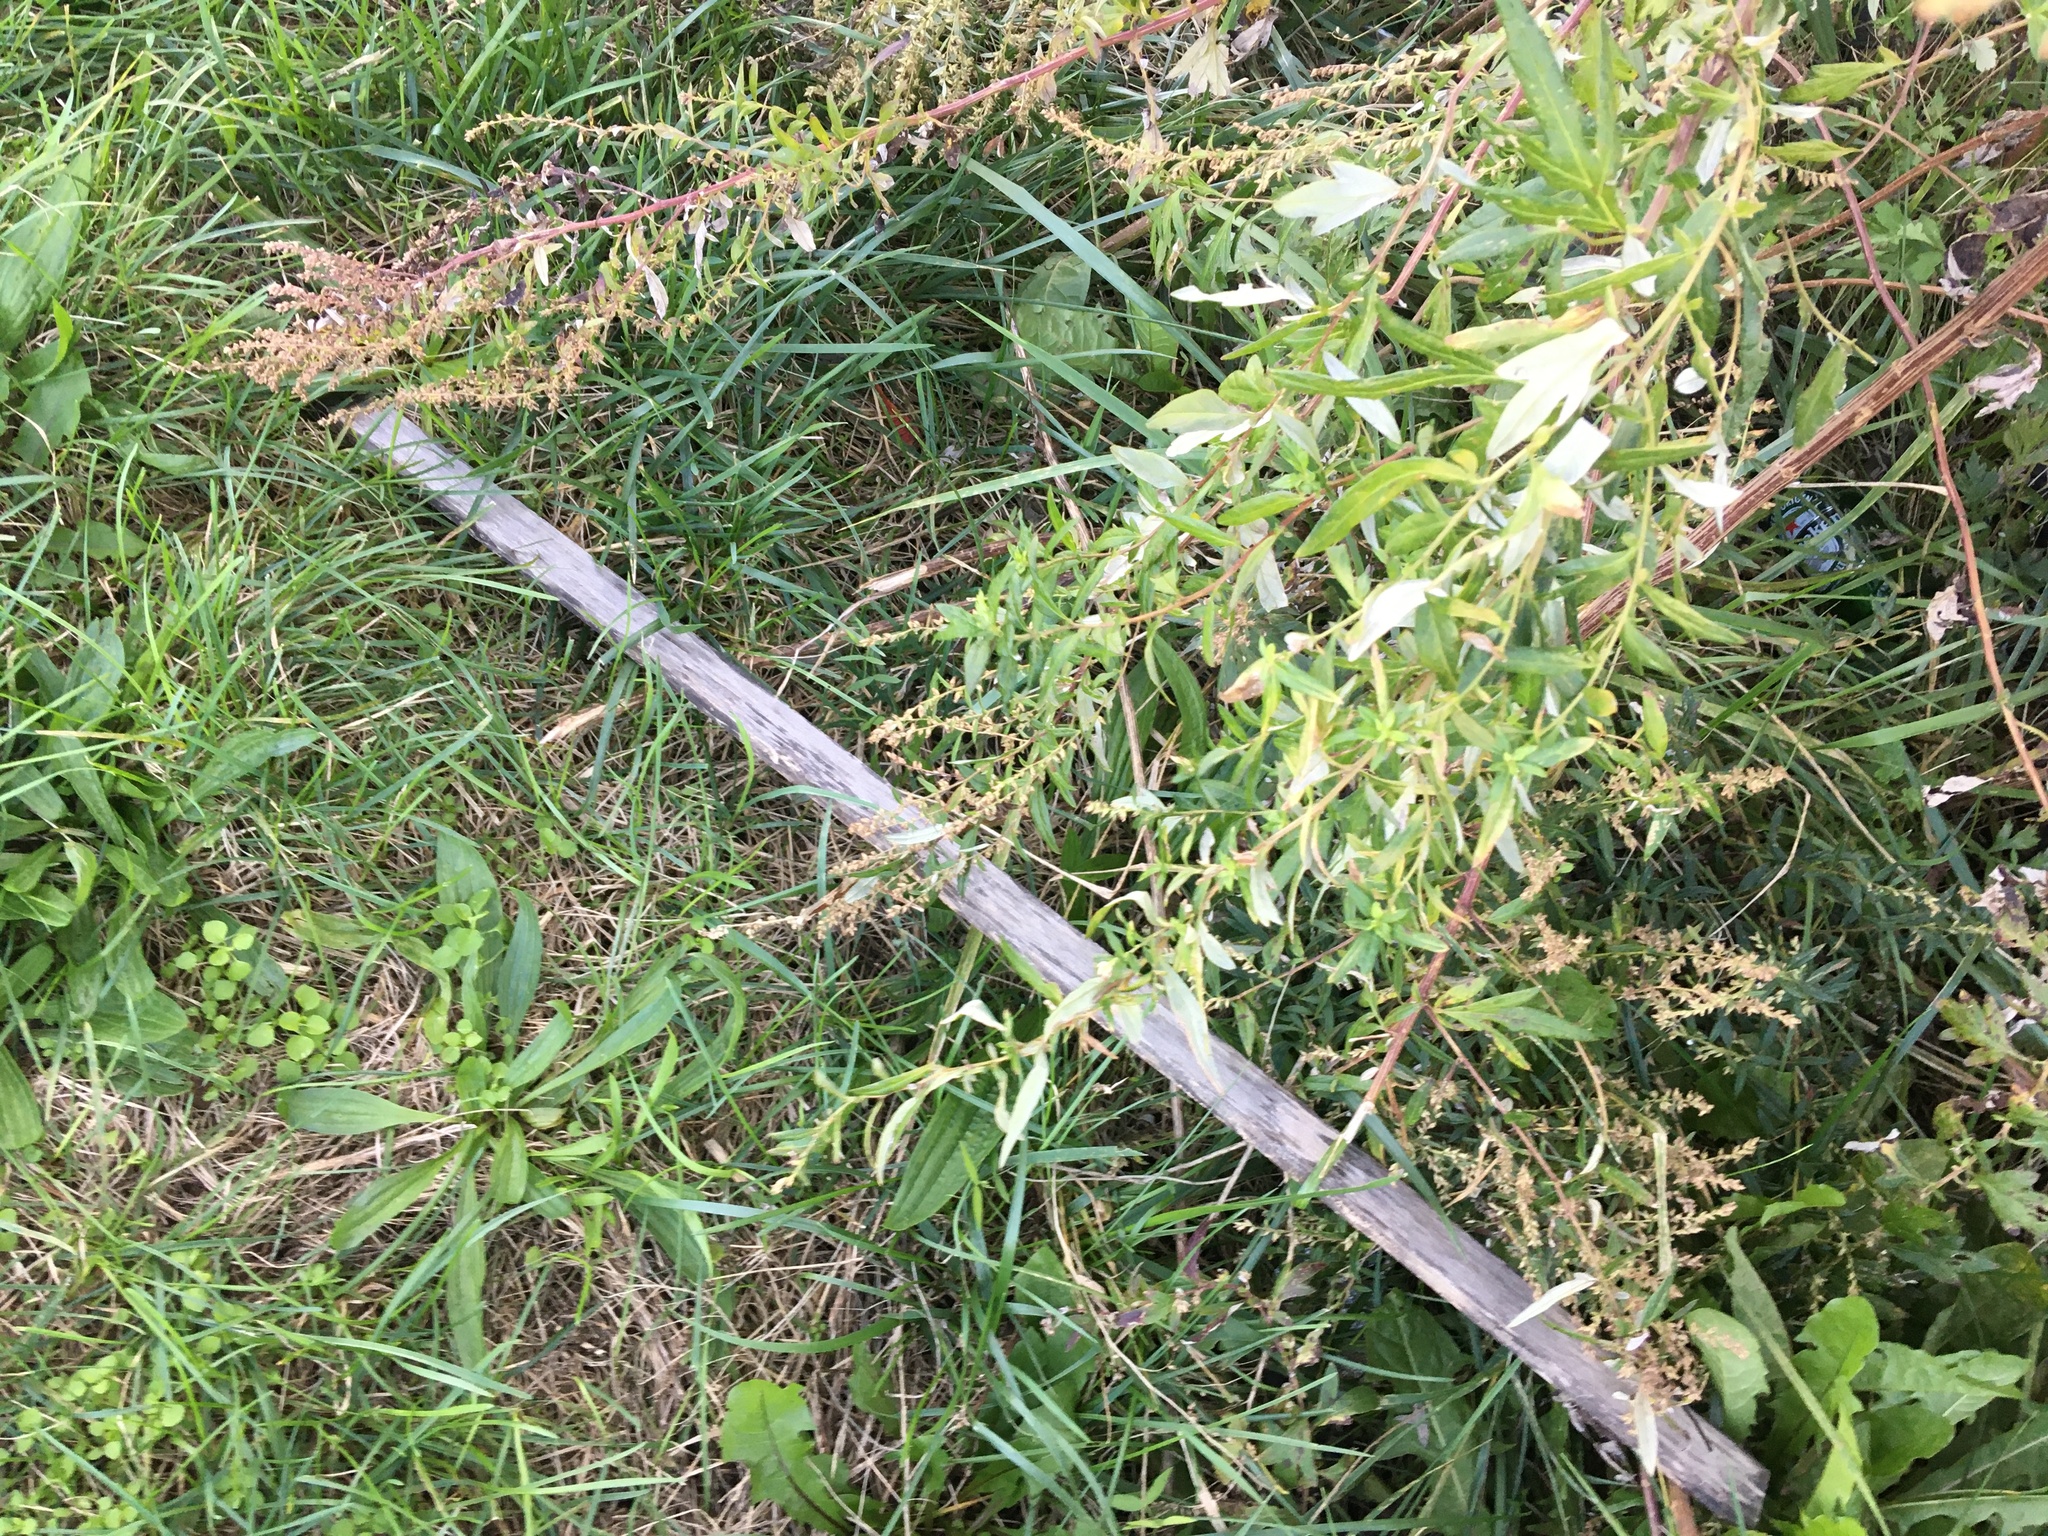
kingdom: Plantae
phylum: Tracheophyta
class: Magnoliopsida
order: Asterales
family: Asteraceae
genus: Artemisia
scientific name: Artemisia vulgaris
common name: Mugwort
